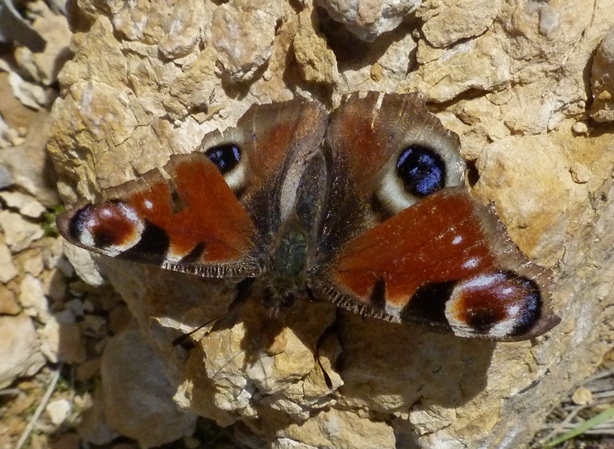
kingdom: Animalia
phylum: Arthropoda
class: Insecta
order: Lepidoptera
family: Nymphalidae
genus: Aglais
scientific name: Aglais io
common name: Peacock
